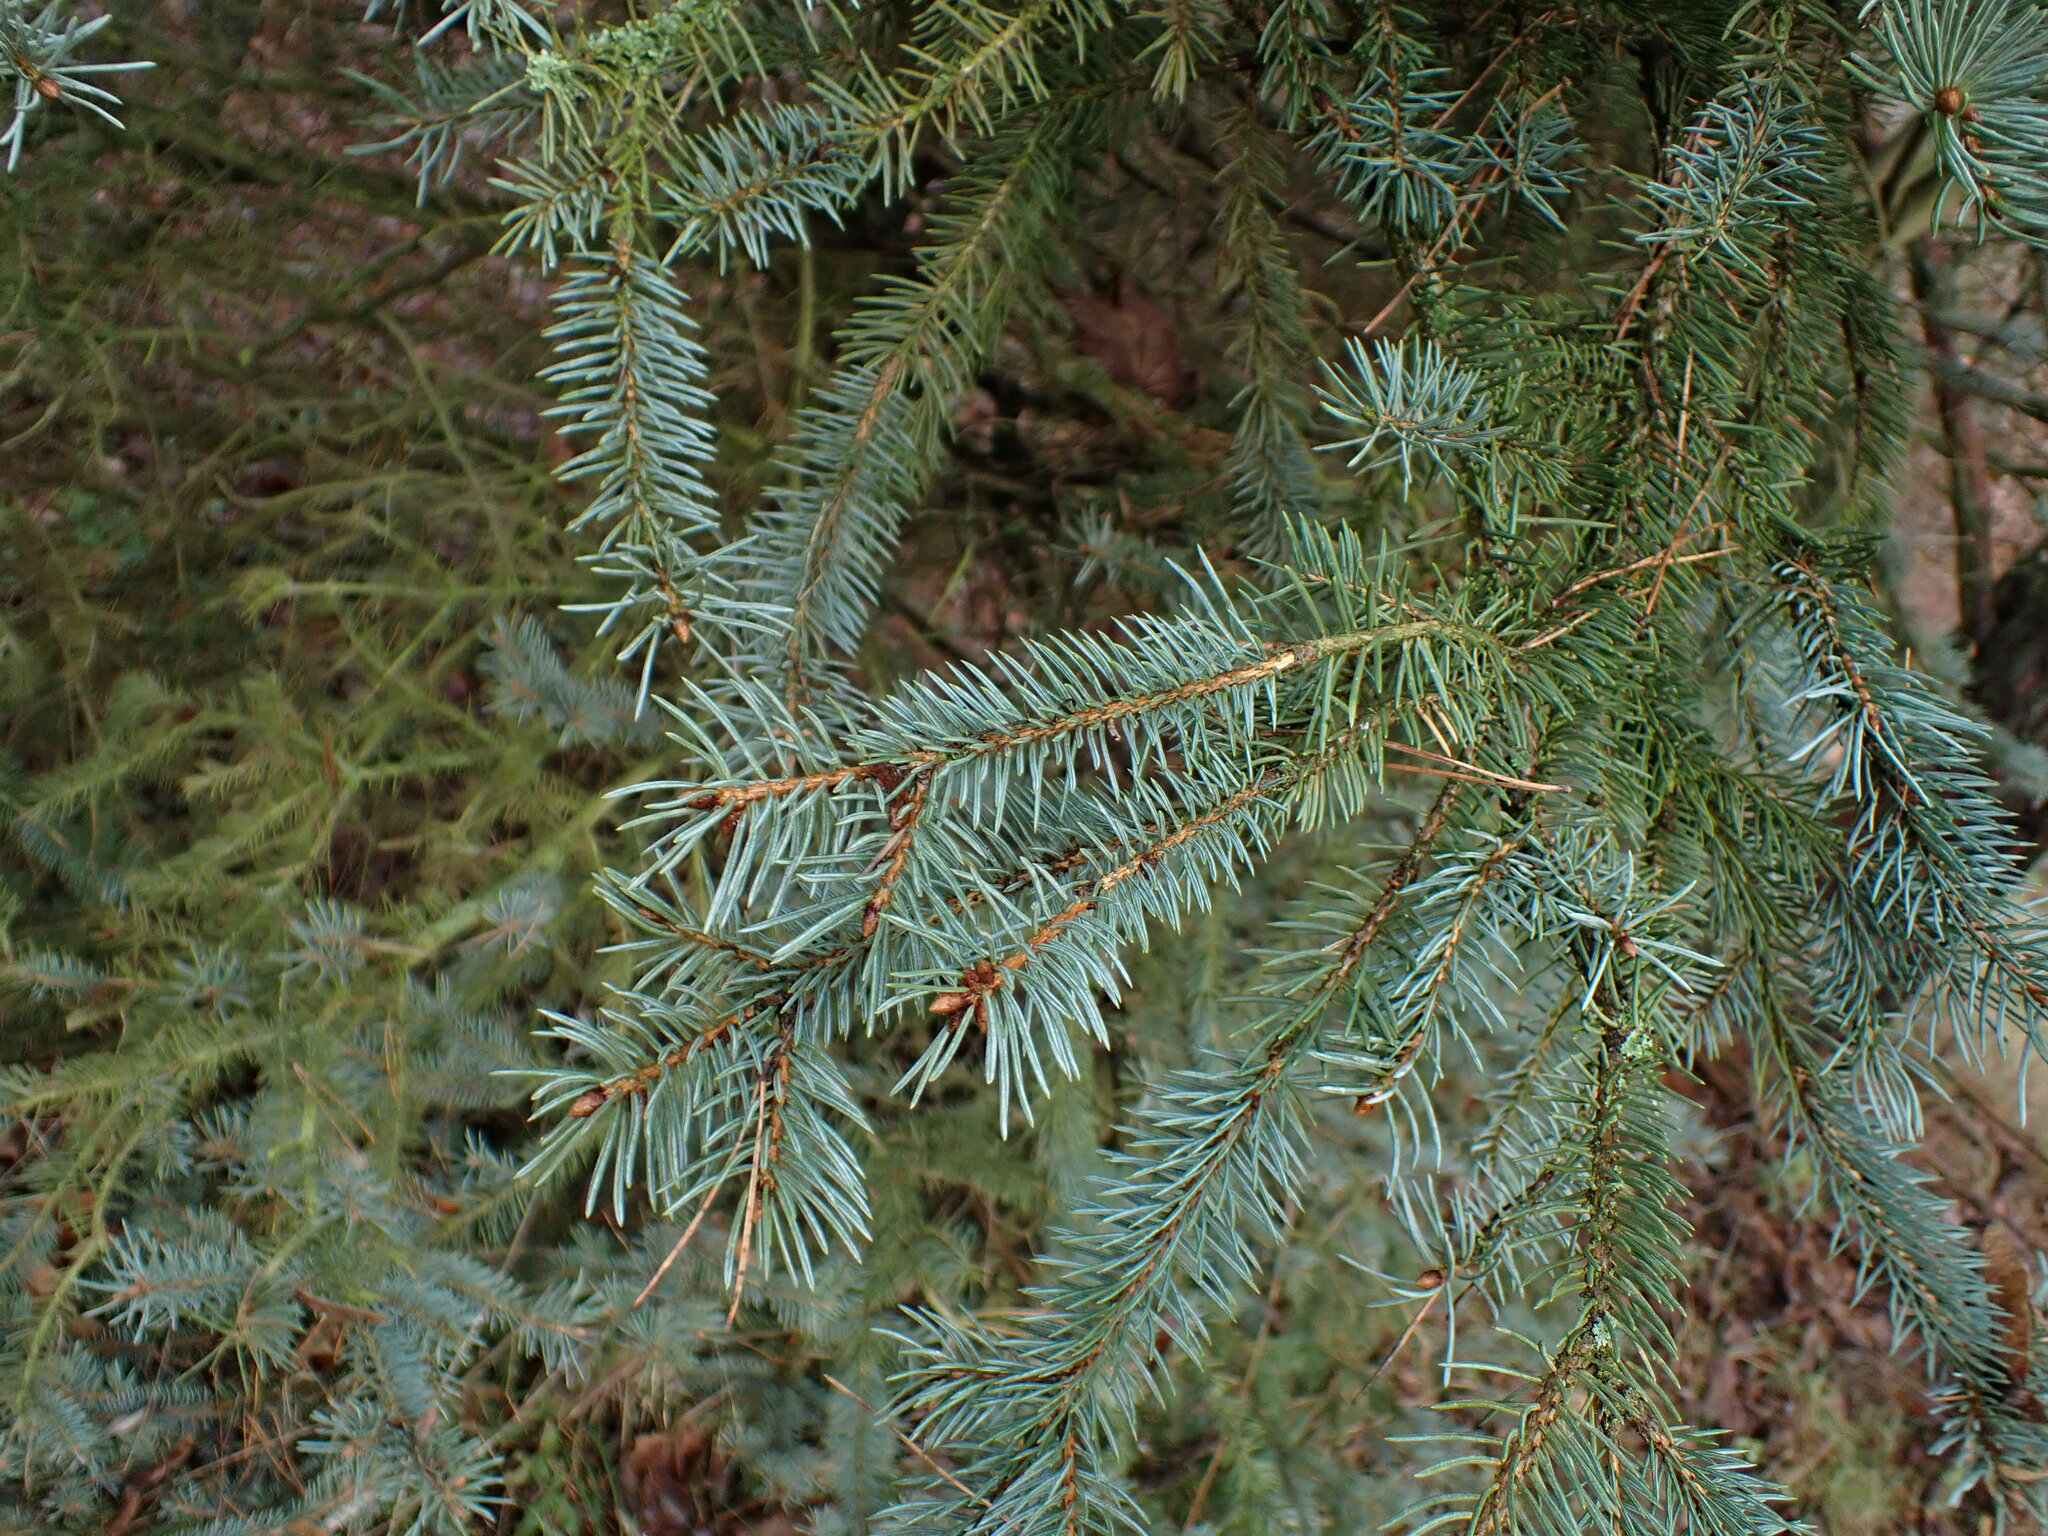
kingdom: Plantae
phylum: Tracheophyta
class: Pinopsida
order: Pinales
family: Pinaceae
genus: Picea
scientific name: Picea pungens
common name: Colorado spruce
